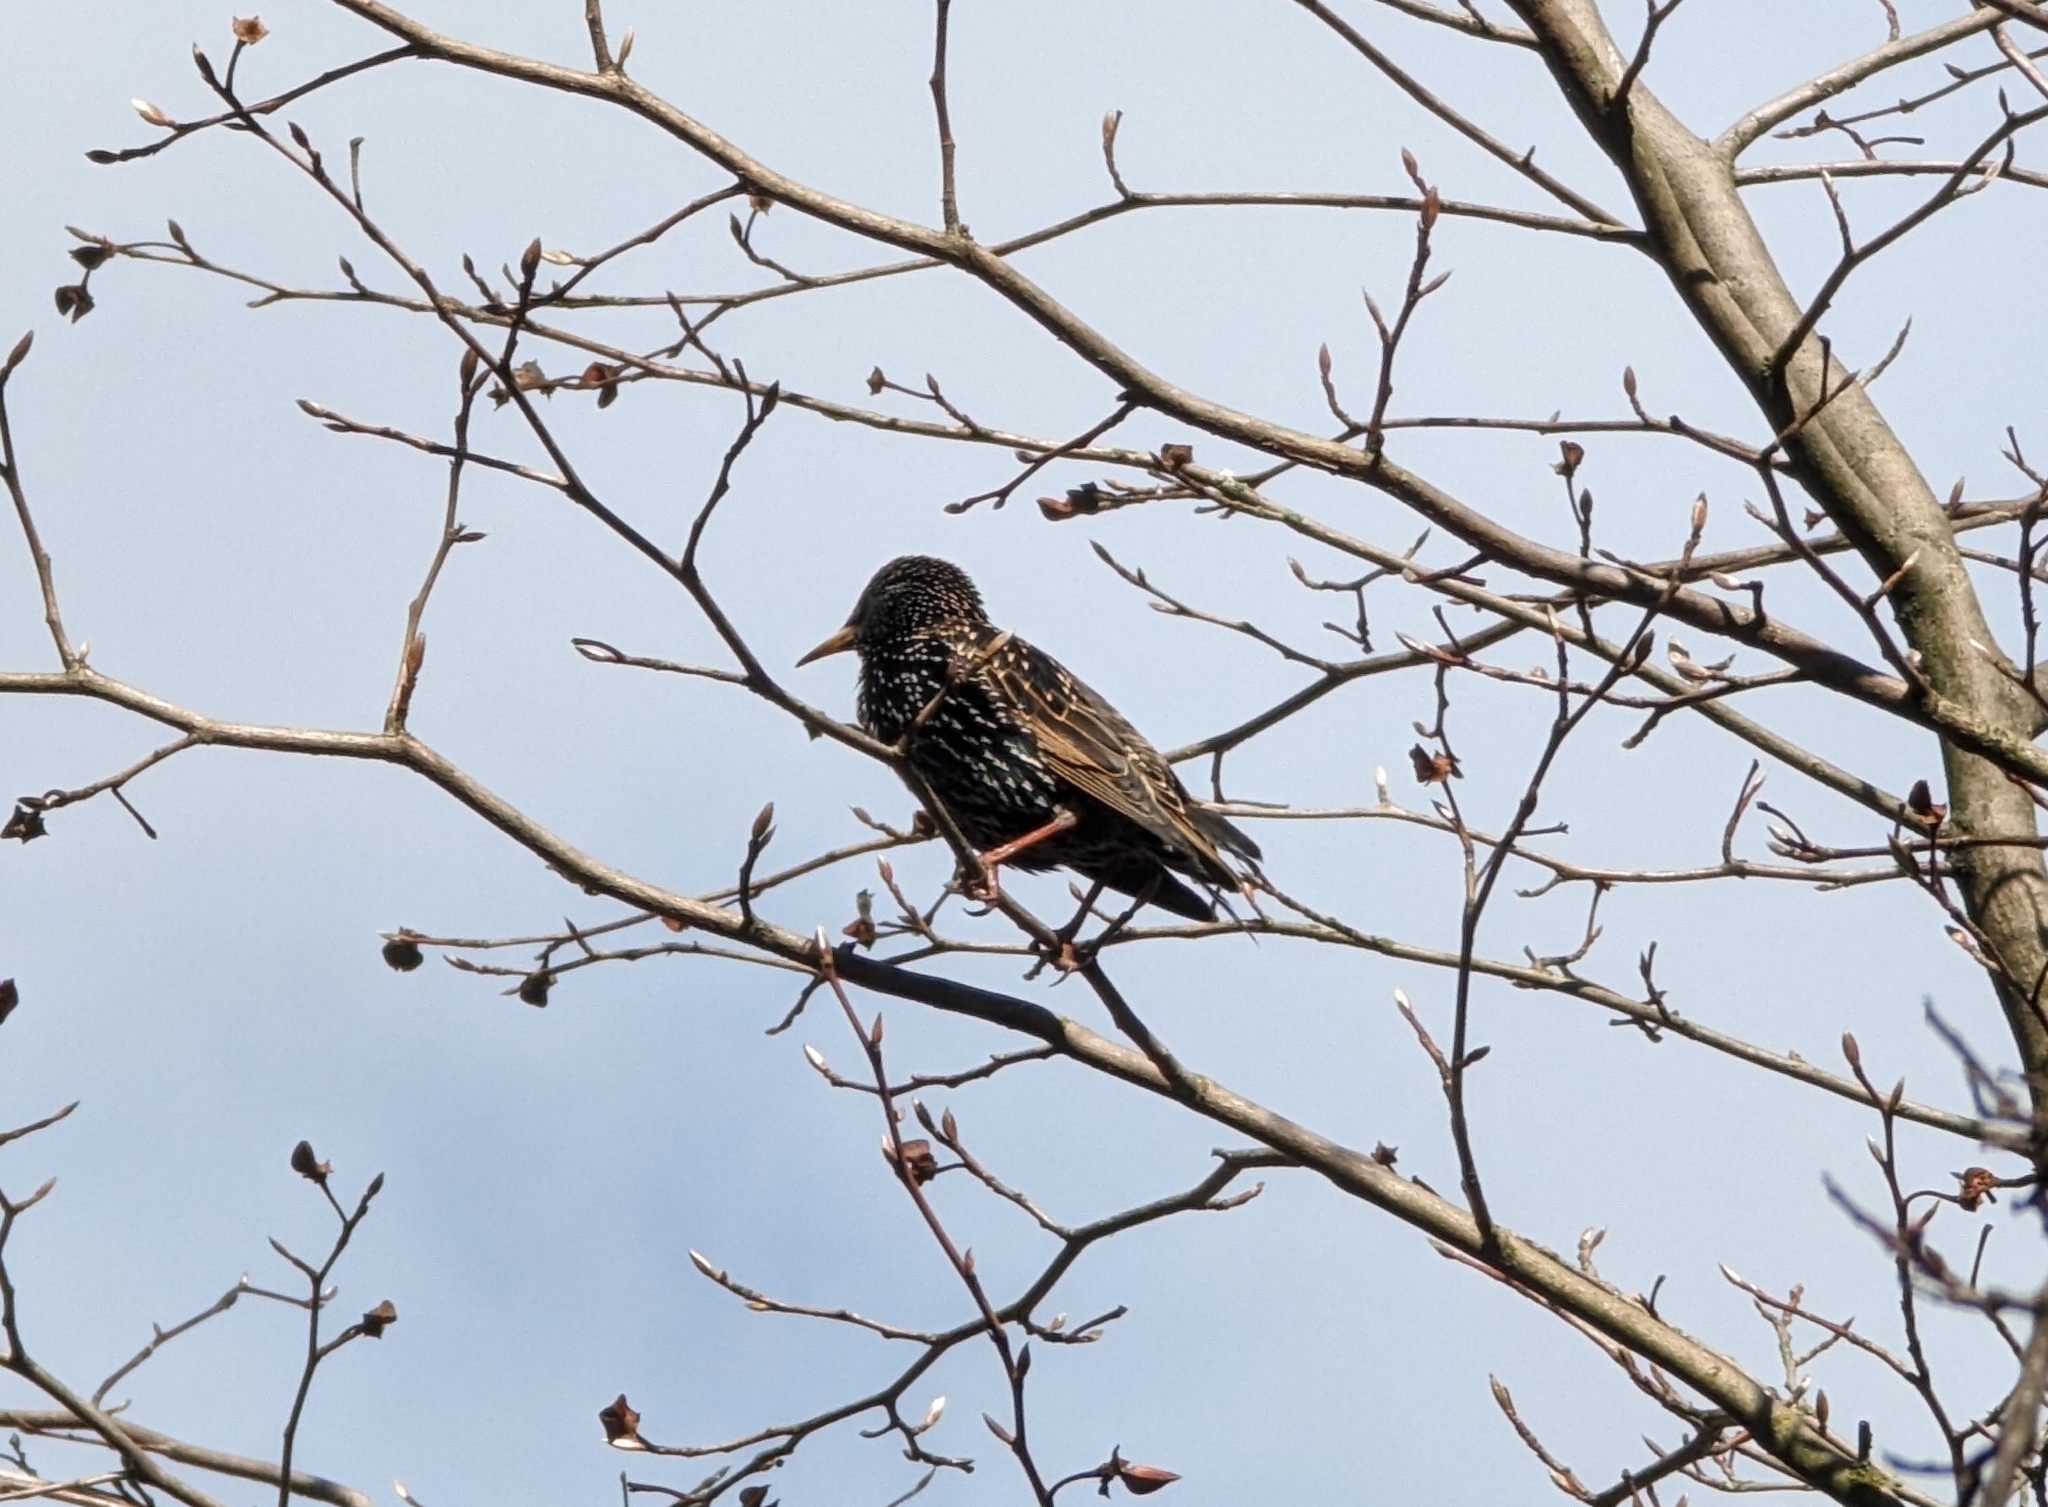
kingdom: Animalia
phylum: Chordata
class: Aves
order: Passeriformes
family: Sturnidae
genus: Sturnus
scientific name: Sturnus vulgaris
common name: Common starling
